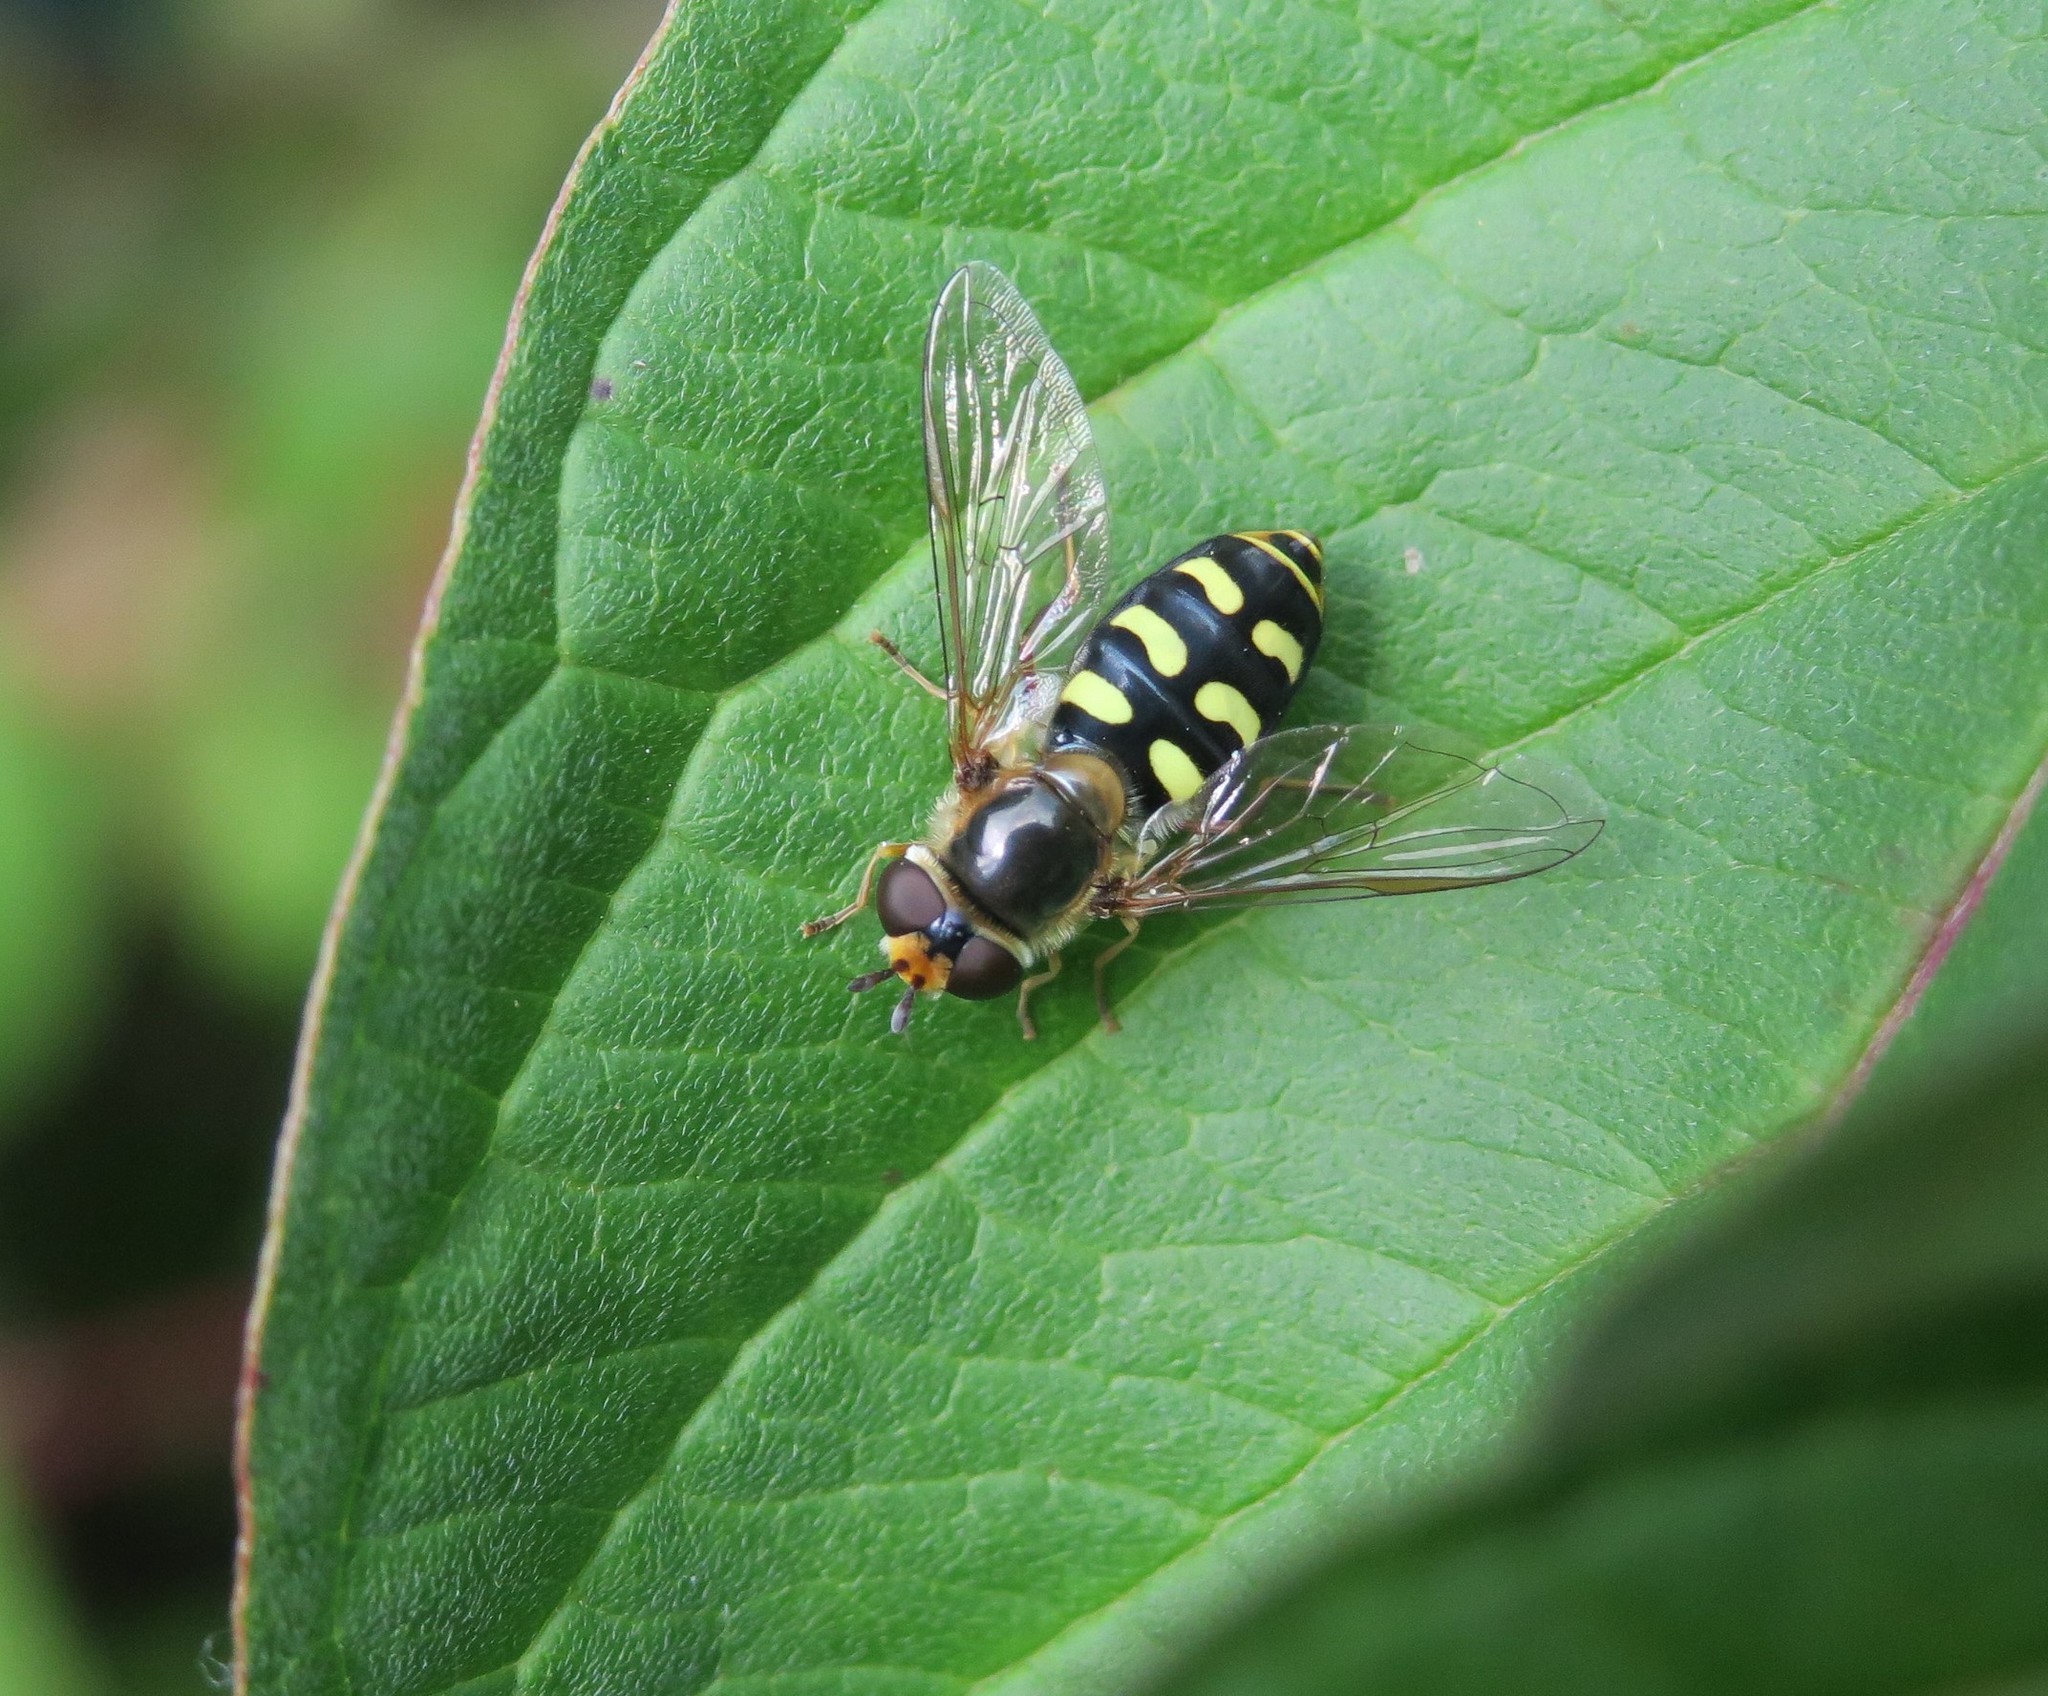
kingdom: Animalia
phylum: Arthropoda
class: Insecta
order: Diptera
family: Syrphidae
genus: Eupeodes
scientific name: Eupeodes luniger
